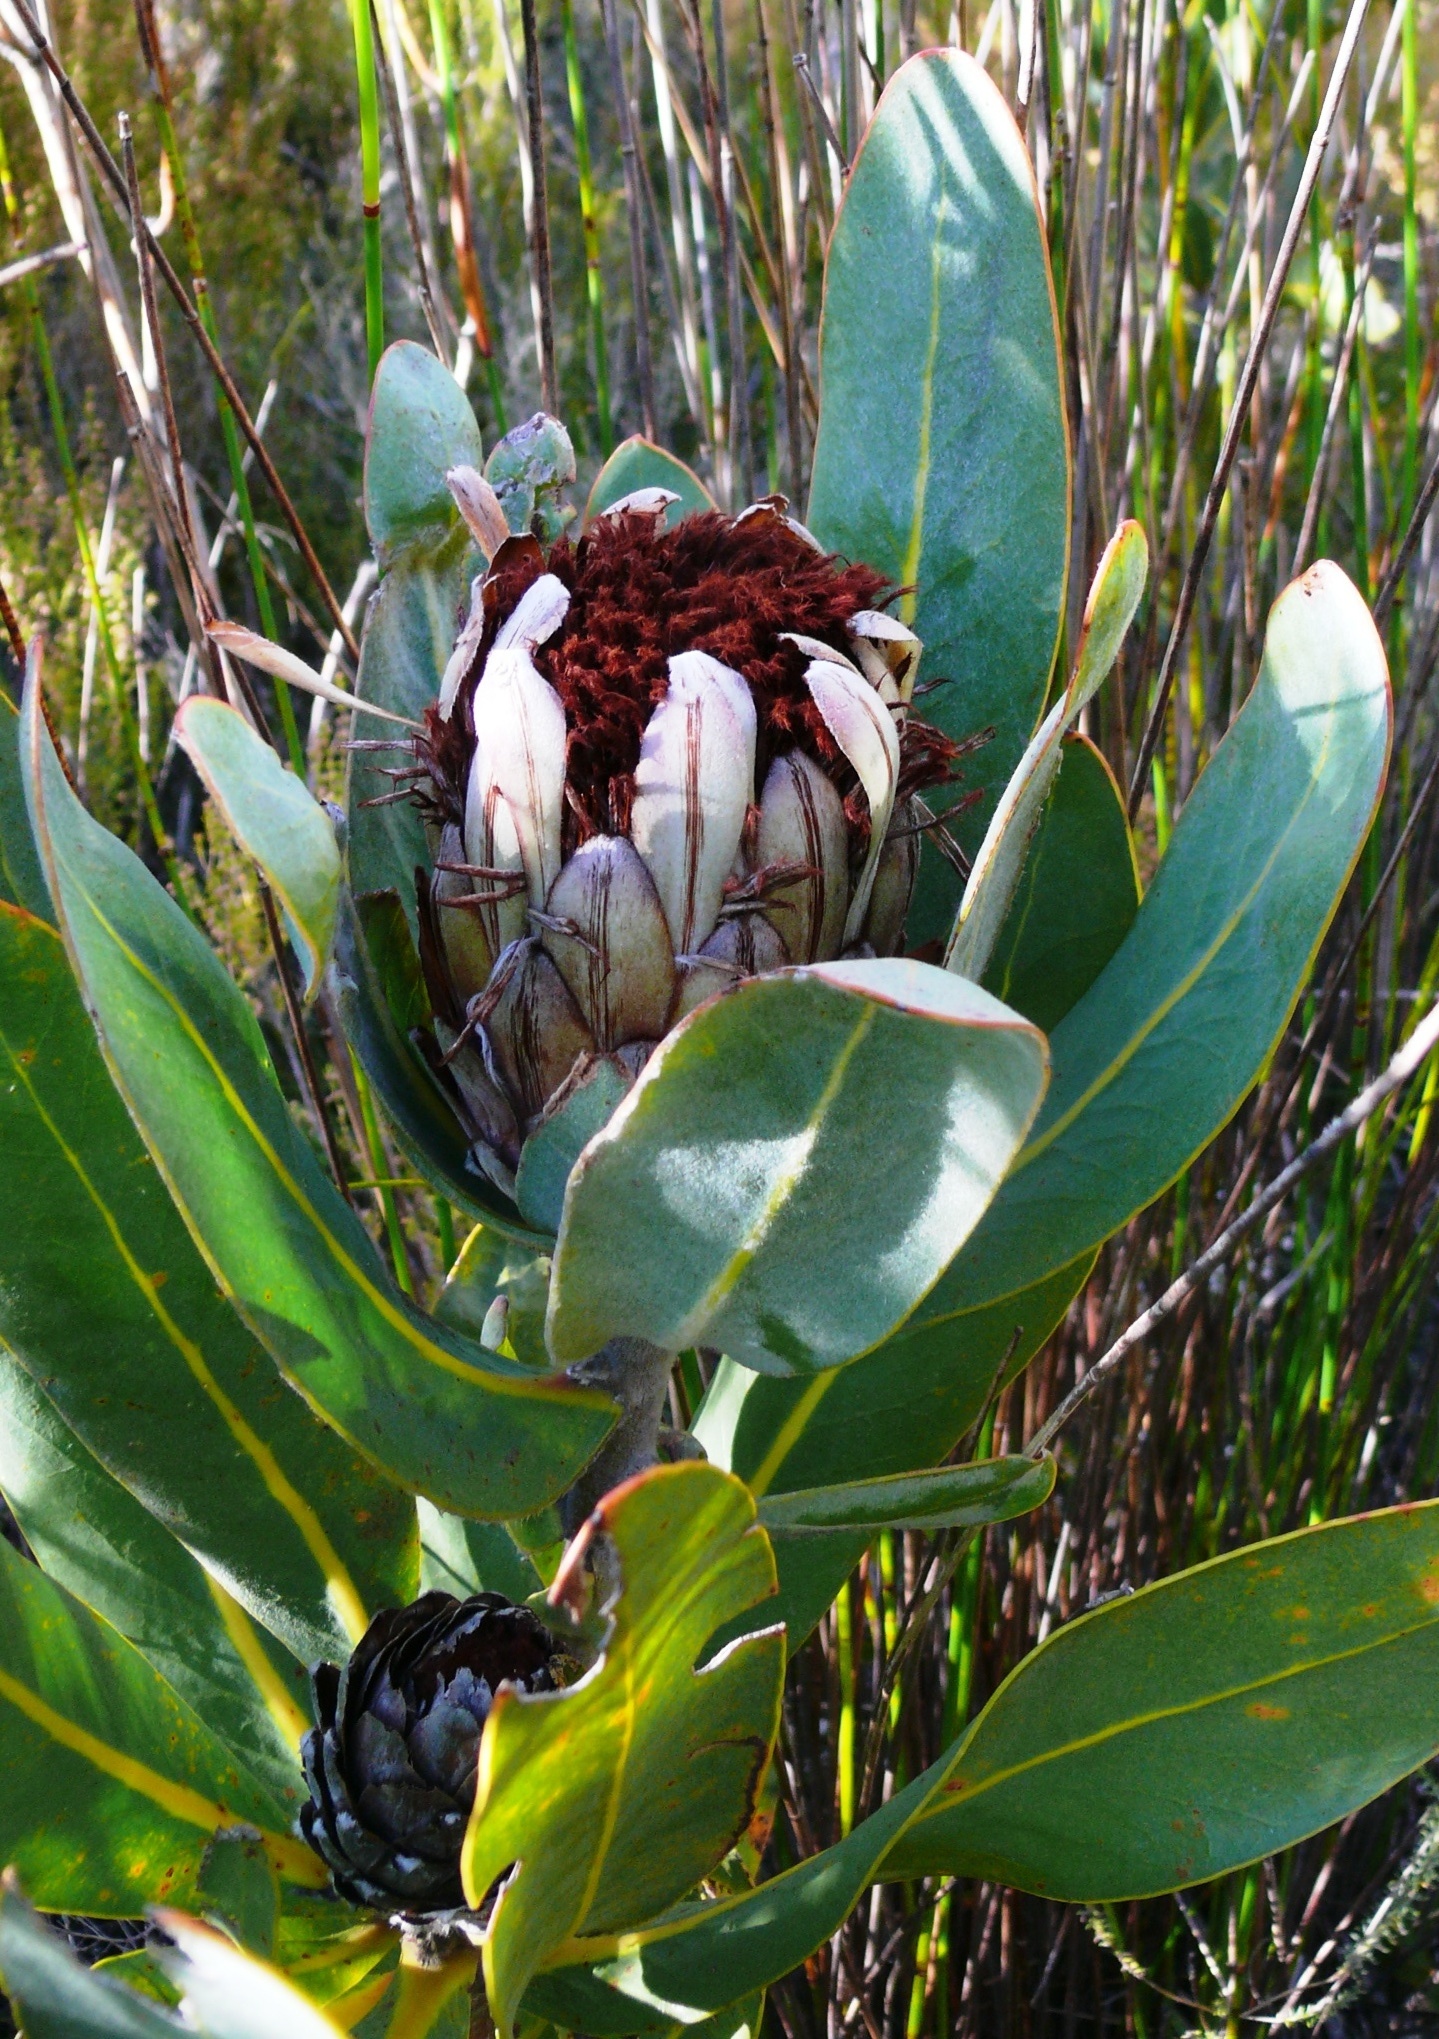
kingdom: Plantae
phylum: Tracheophyta
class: Magnoliopsida
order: Proteales
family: Proteaceae
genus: Protea
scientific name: Protea lorifolia
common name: Strap-leaved protea
